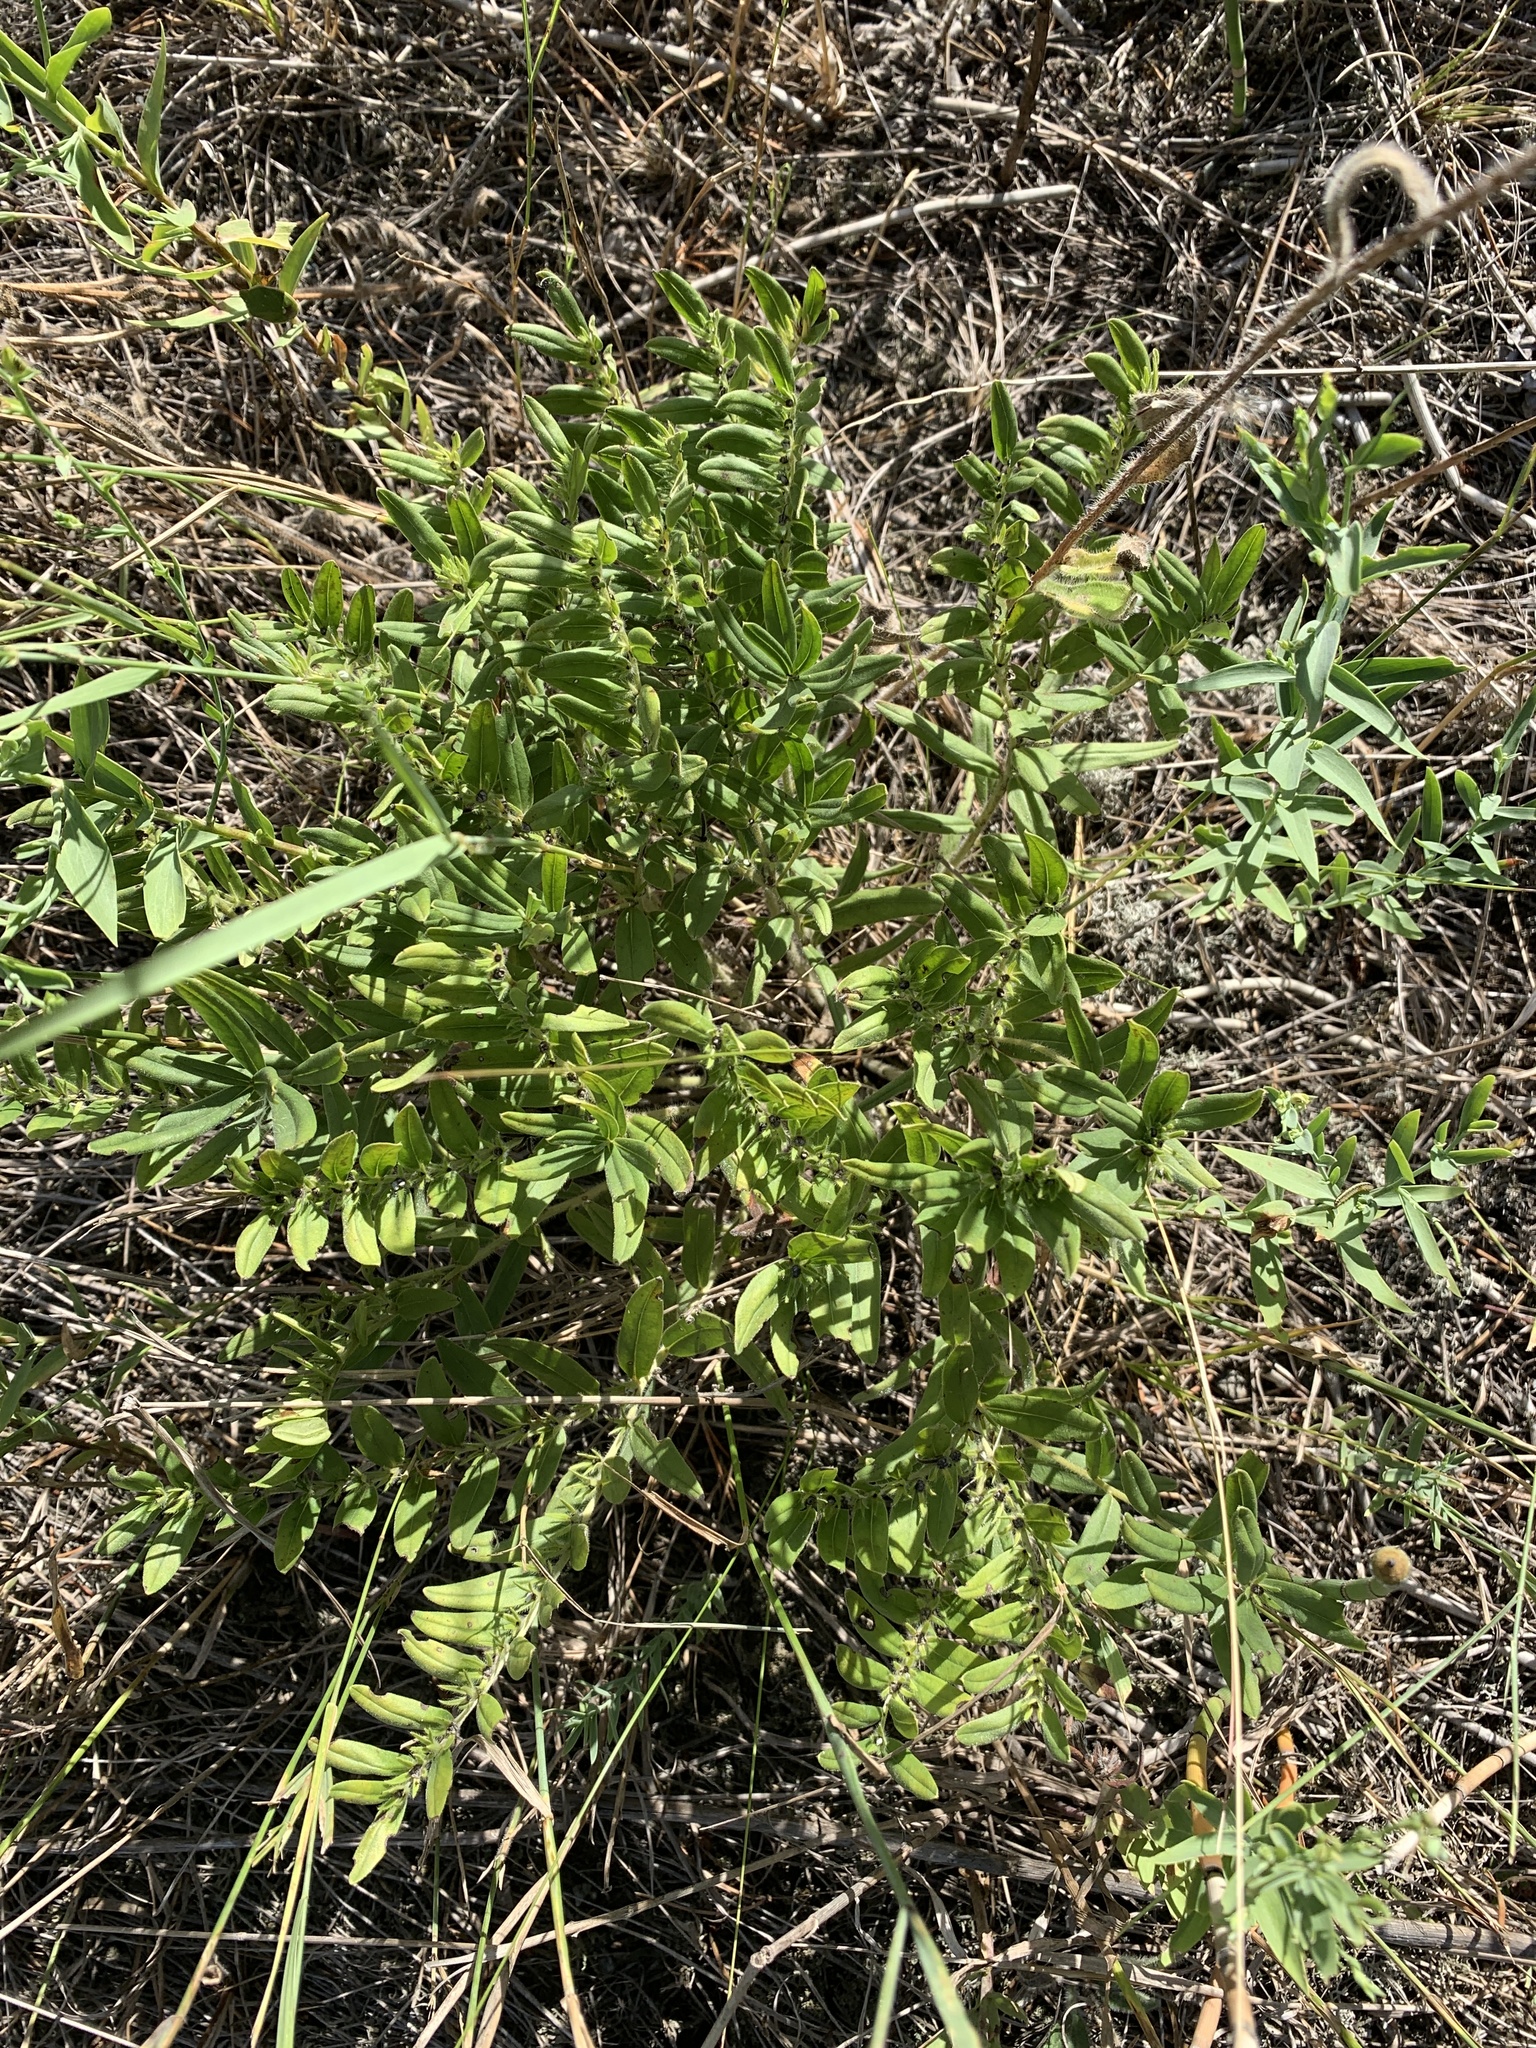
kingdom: Plantae
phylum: Tracheophyta
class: Magnoliopsida
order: Boraginales
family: Boraginaceae
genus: Lithospermum
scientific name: Lithospermum canescens
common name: Hoary puccoon
